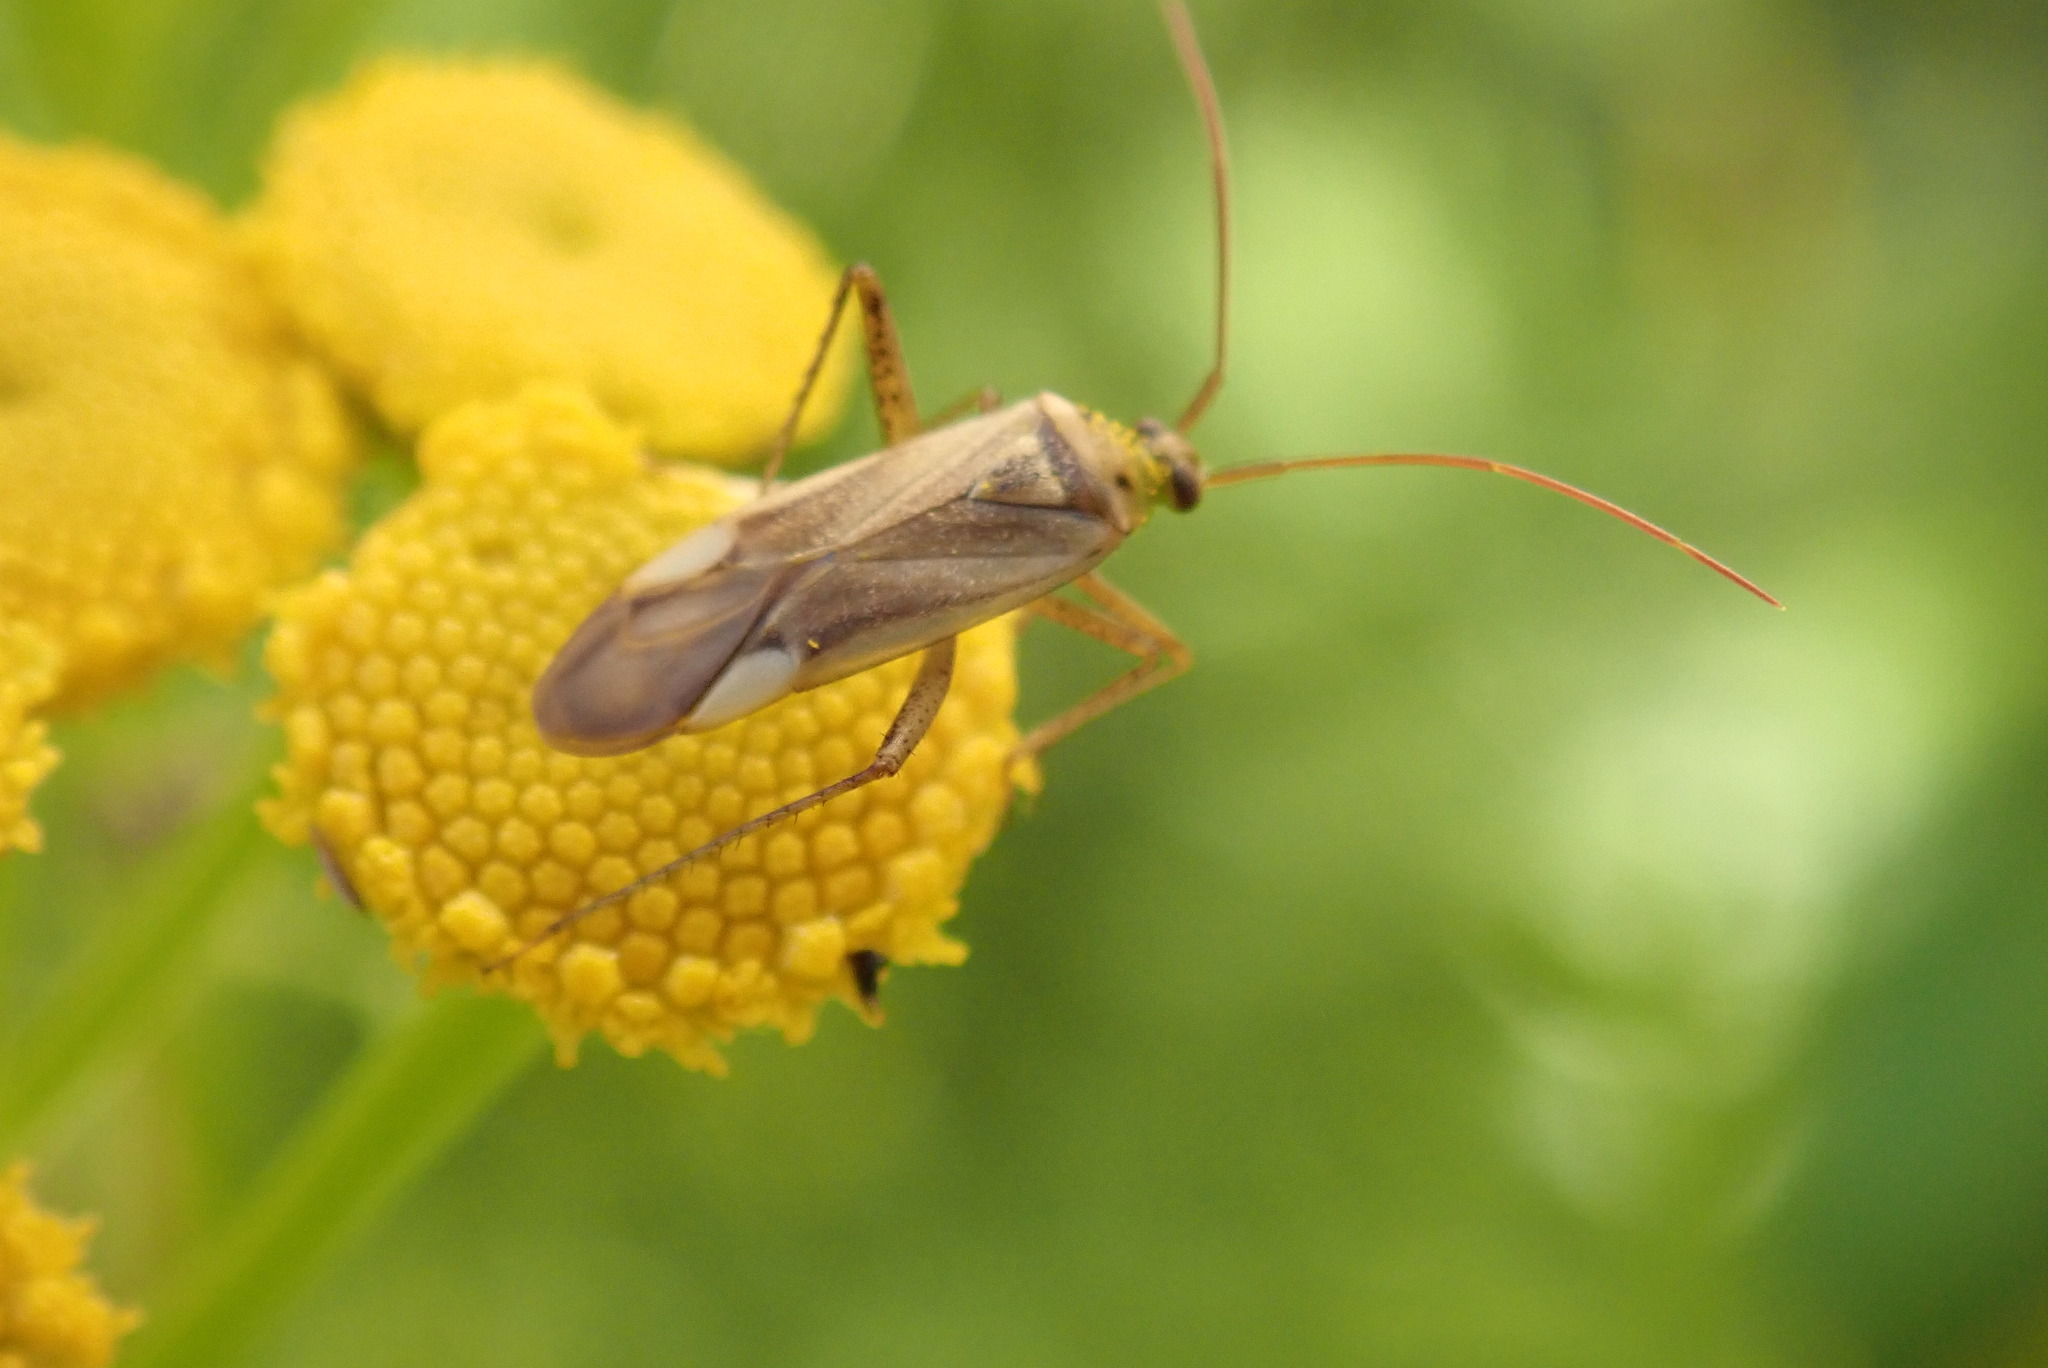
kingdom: Animalia
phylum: Arthropoda
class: Insecta
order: Hemiptera
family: Miridae
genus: Adelphocoris
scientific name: Adelphocoris lineolatus
